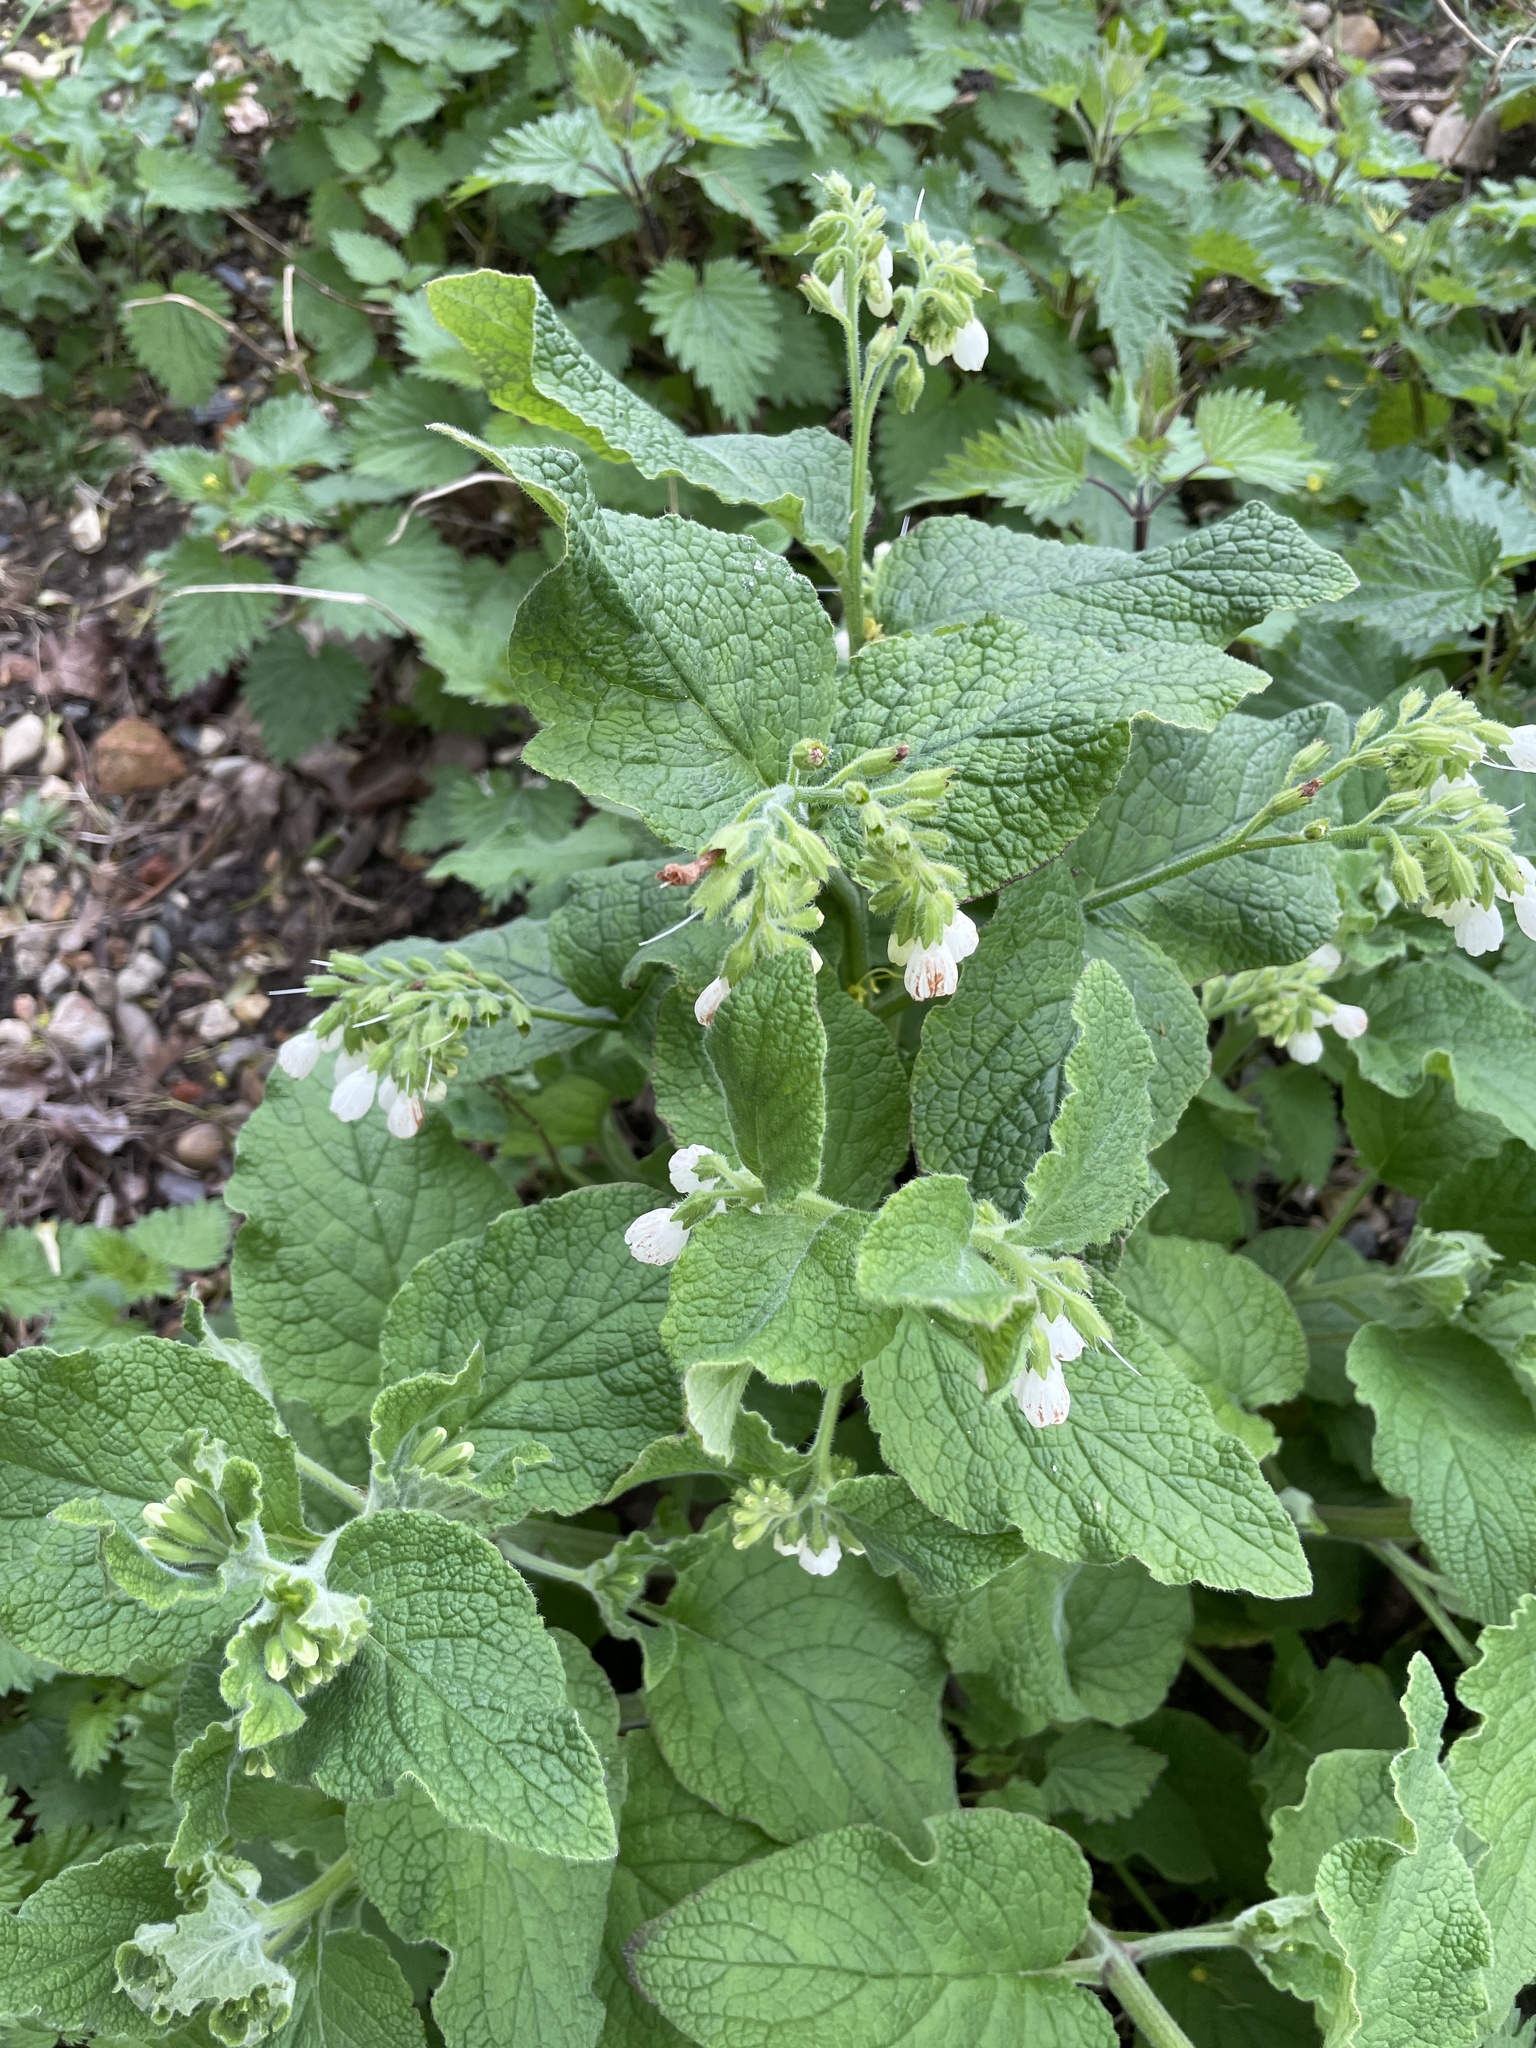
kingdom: Plantae
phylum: Tracheophyta
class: Magnoliopsida
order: Boraginales
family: Boraginaceae
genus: Symphytum
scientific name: Symphytum orientale
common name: White comfrey
